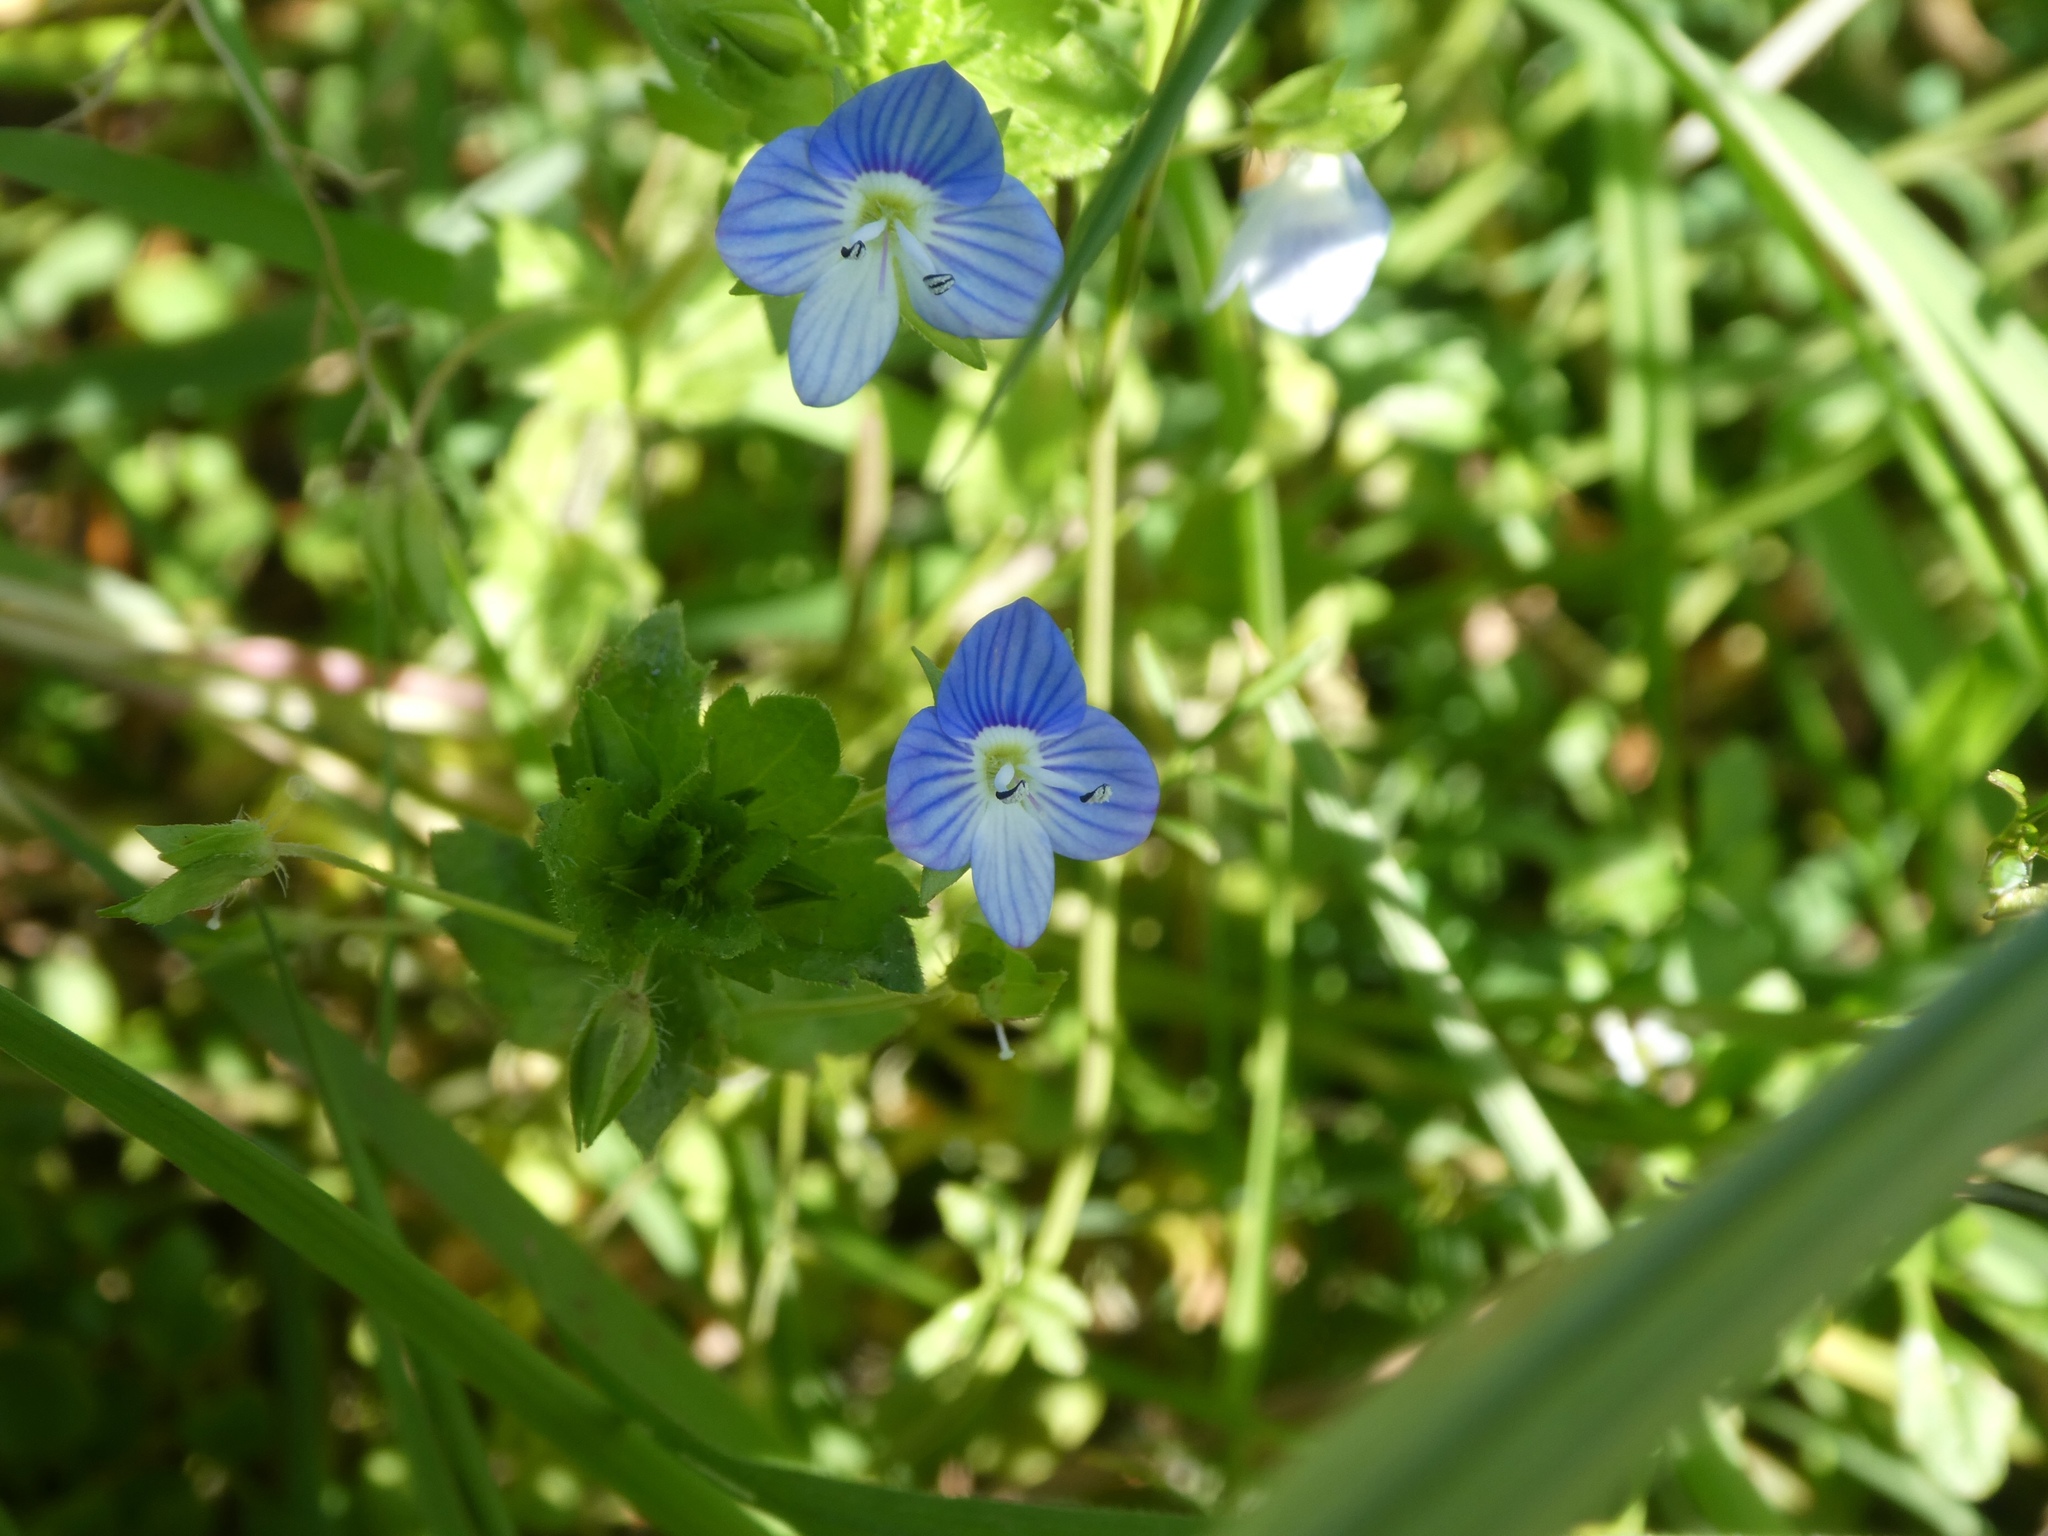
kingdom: Plantae
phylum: Tracheophyta
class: Magnoliopsida
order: Lamiales
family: Plantaginaceae
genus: Veronica
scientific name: Veronica persica
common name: Common field-speedwell
